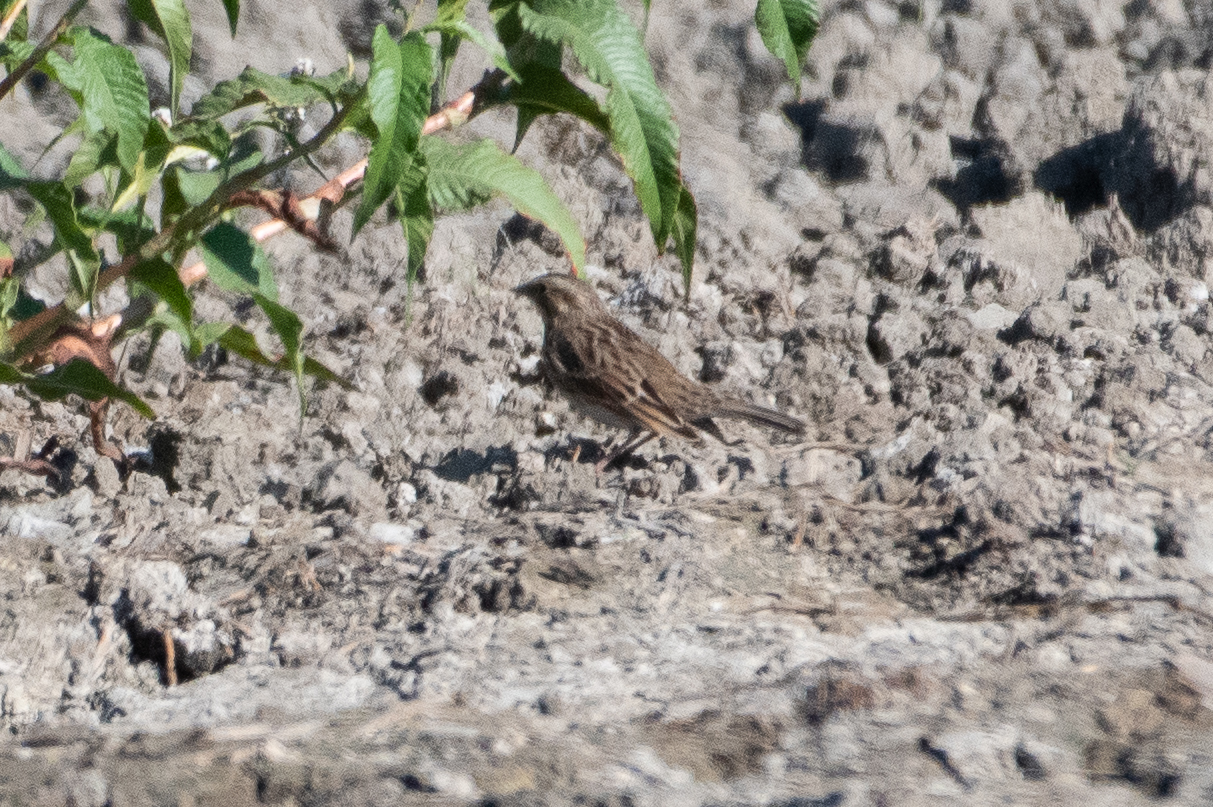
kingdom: Animalia
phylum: Chordata
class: Aves
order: Passeriformes
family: Passerellidae
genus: Passerculus
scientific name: Passerculus sandwichensis
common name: Savannah sparrow
